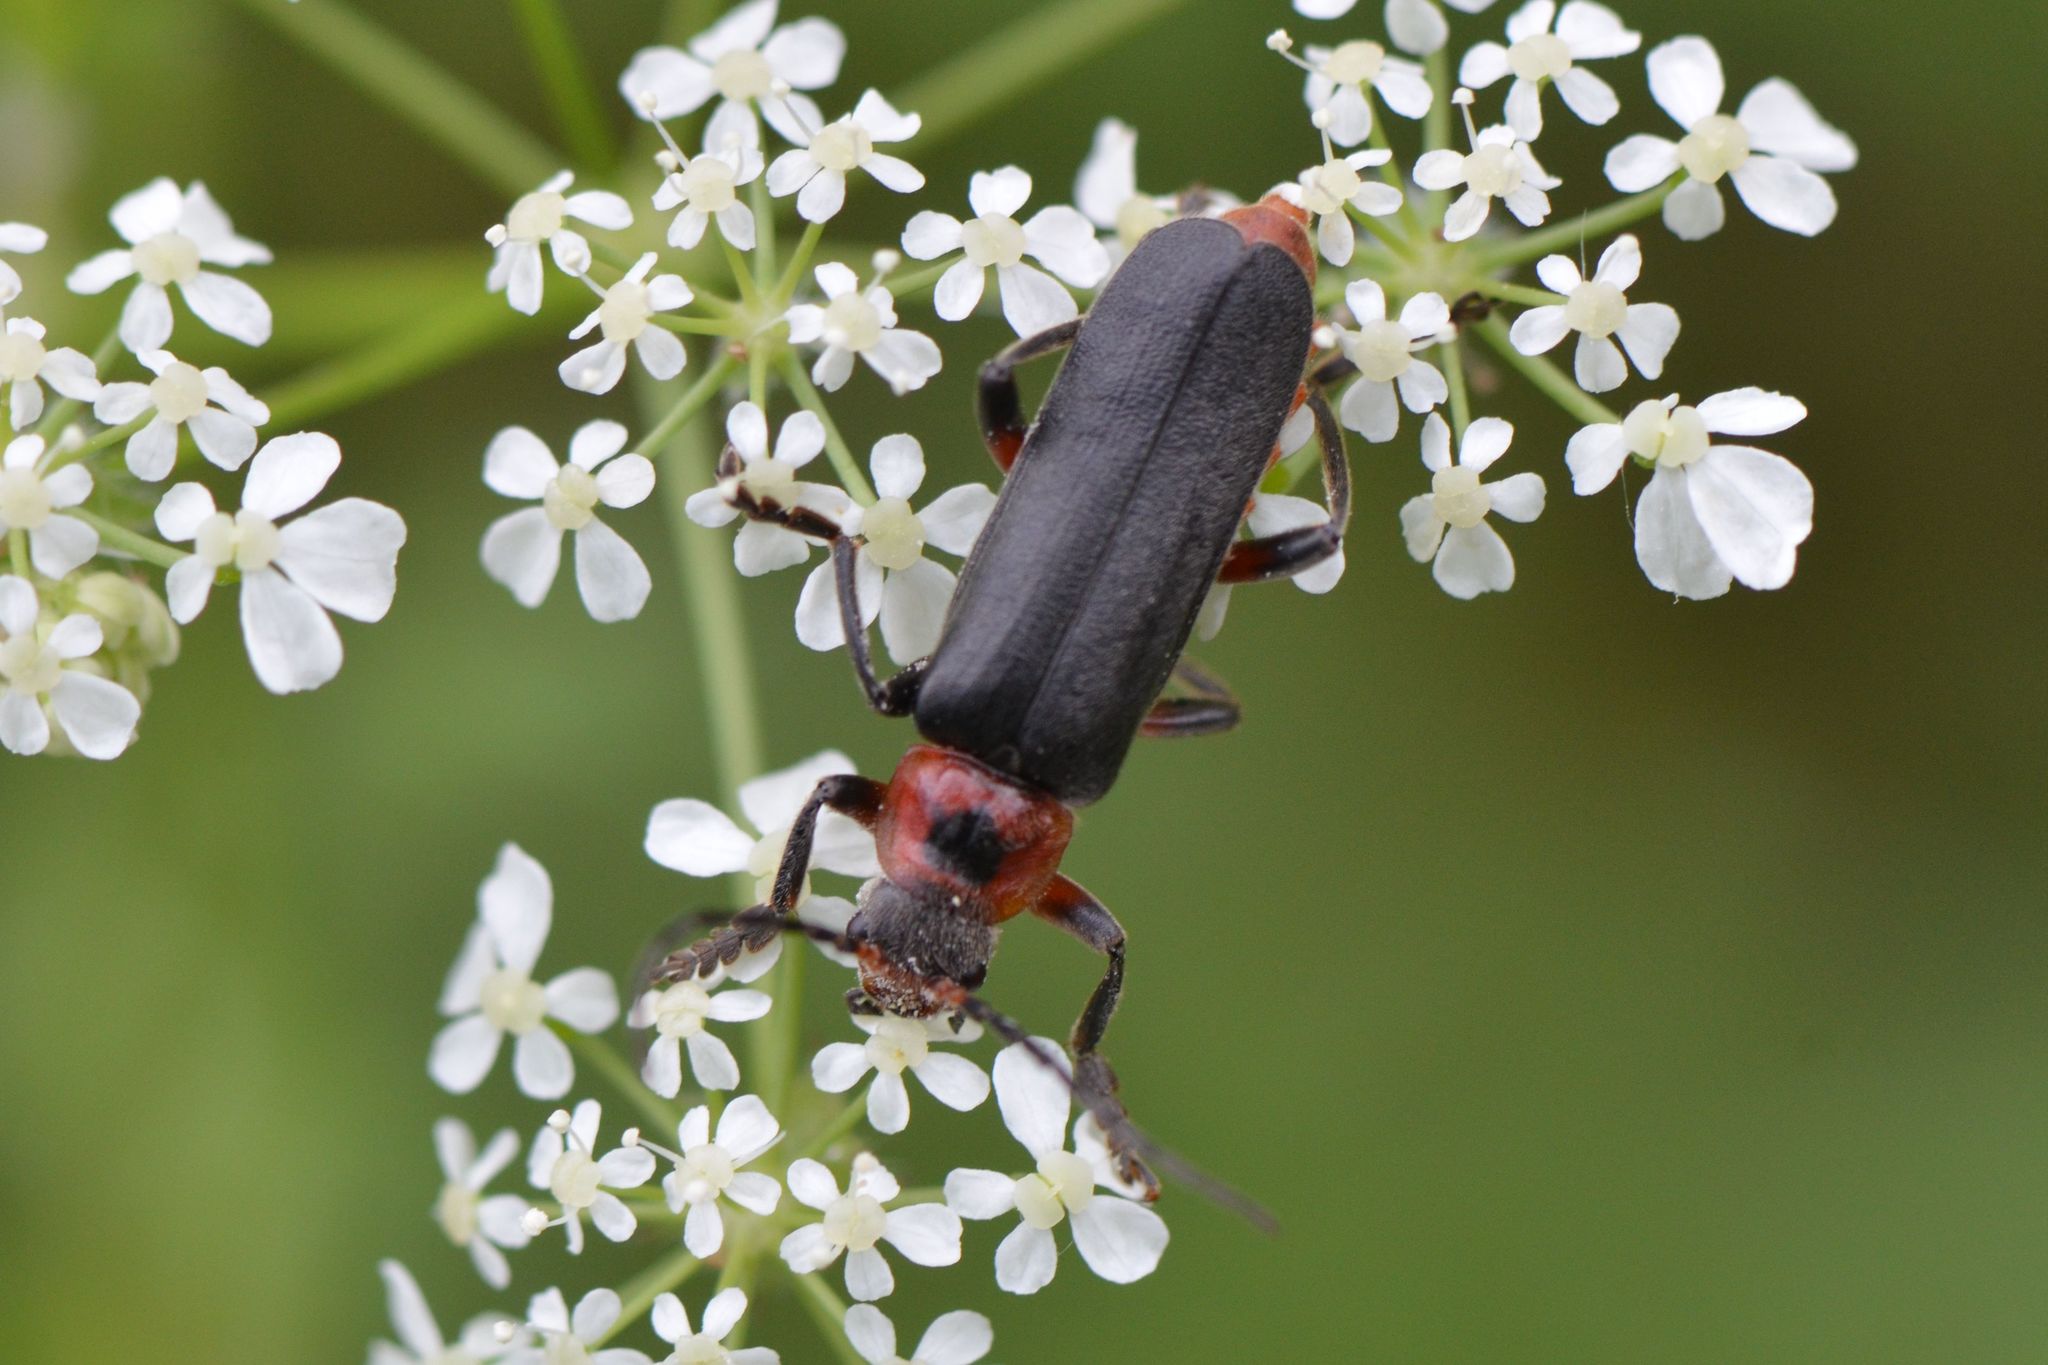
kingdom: Animalia
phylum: Arthropoda
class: Insecta
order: Coleoptera
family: Cantharidae
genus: Cantharis
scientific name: Cantharis rustica
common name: Soldier beetle
